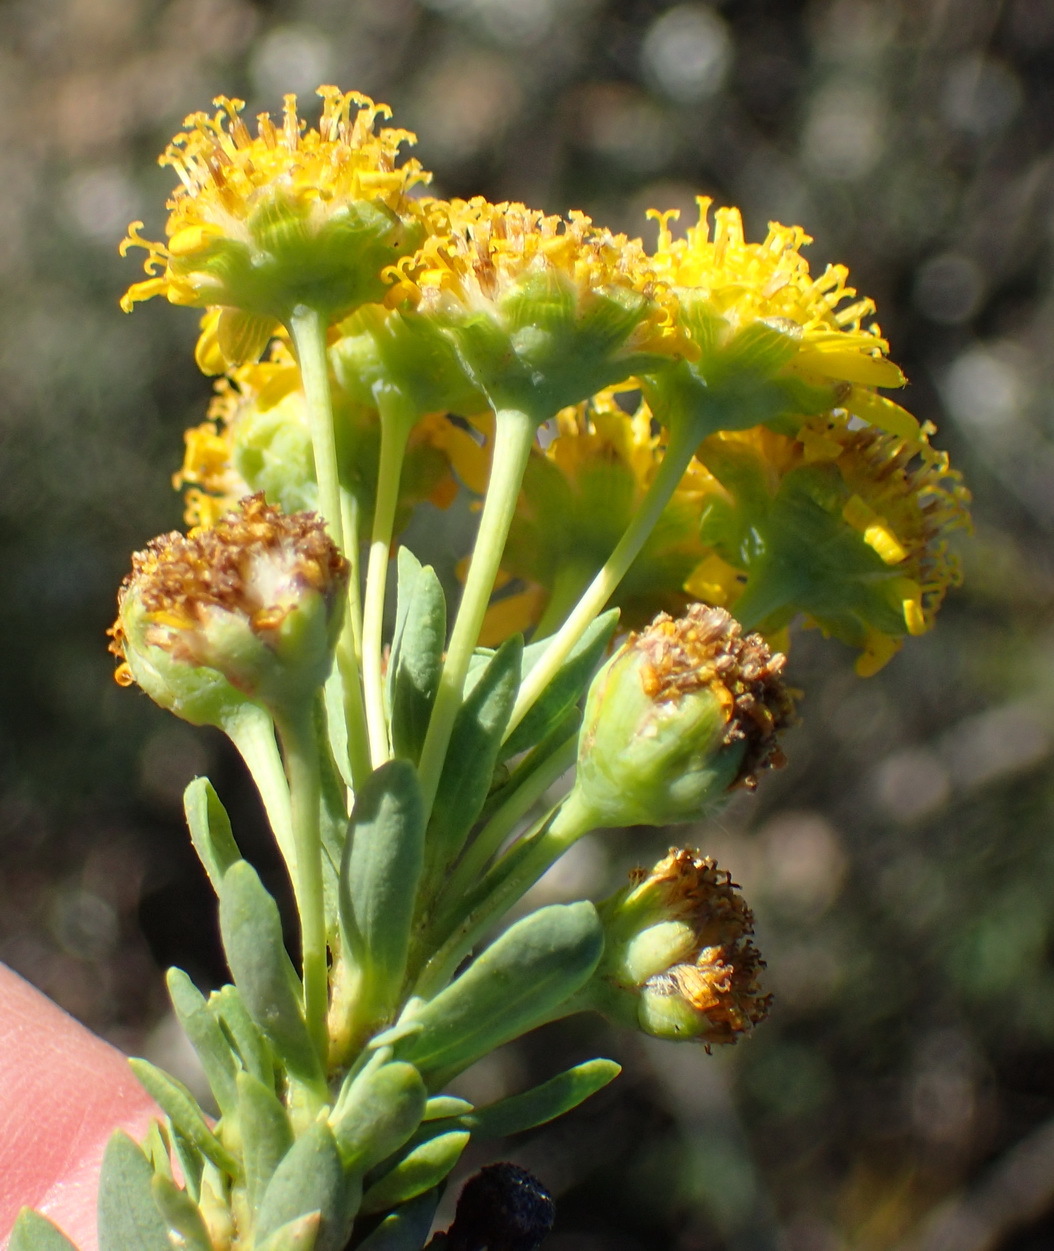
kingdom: Plantae
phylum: Tracheophyta
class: Magnoliopsida
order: Asterales
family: Asteraceae
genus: Euryops
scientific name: Euryops lateriflorus
